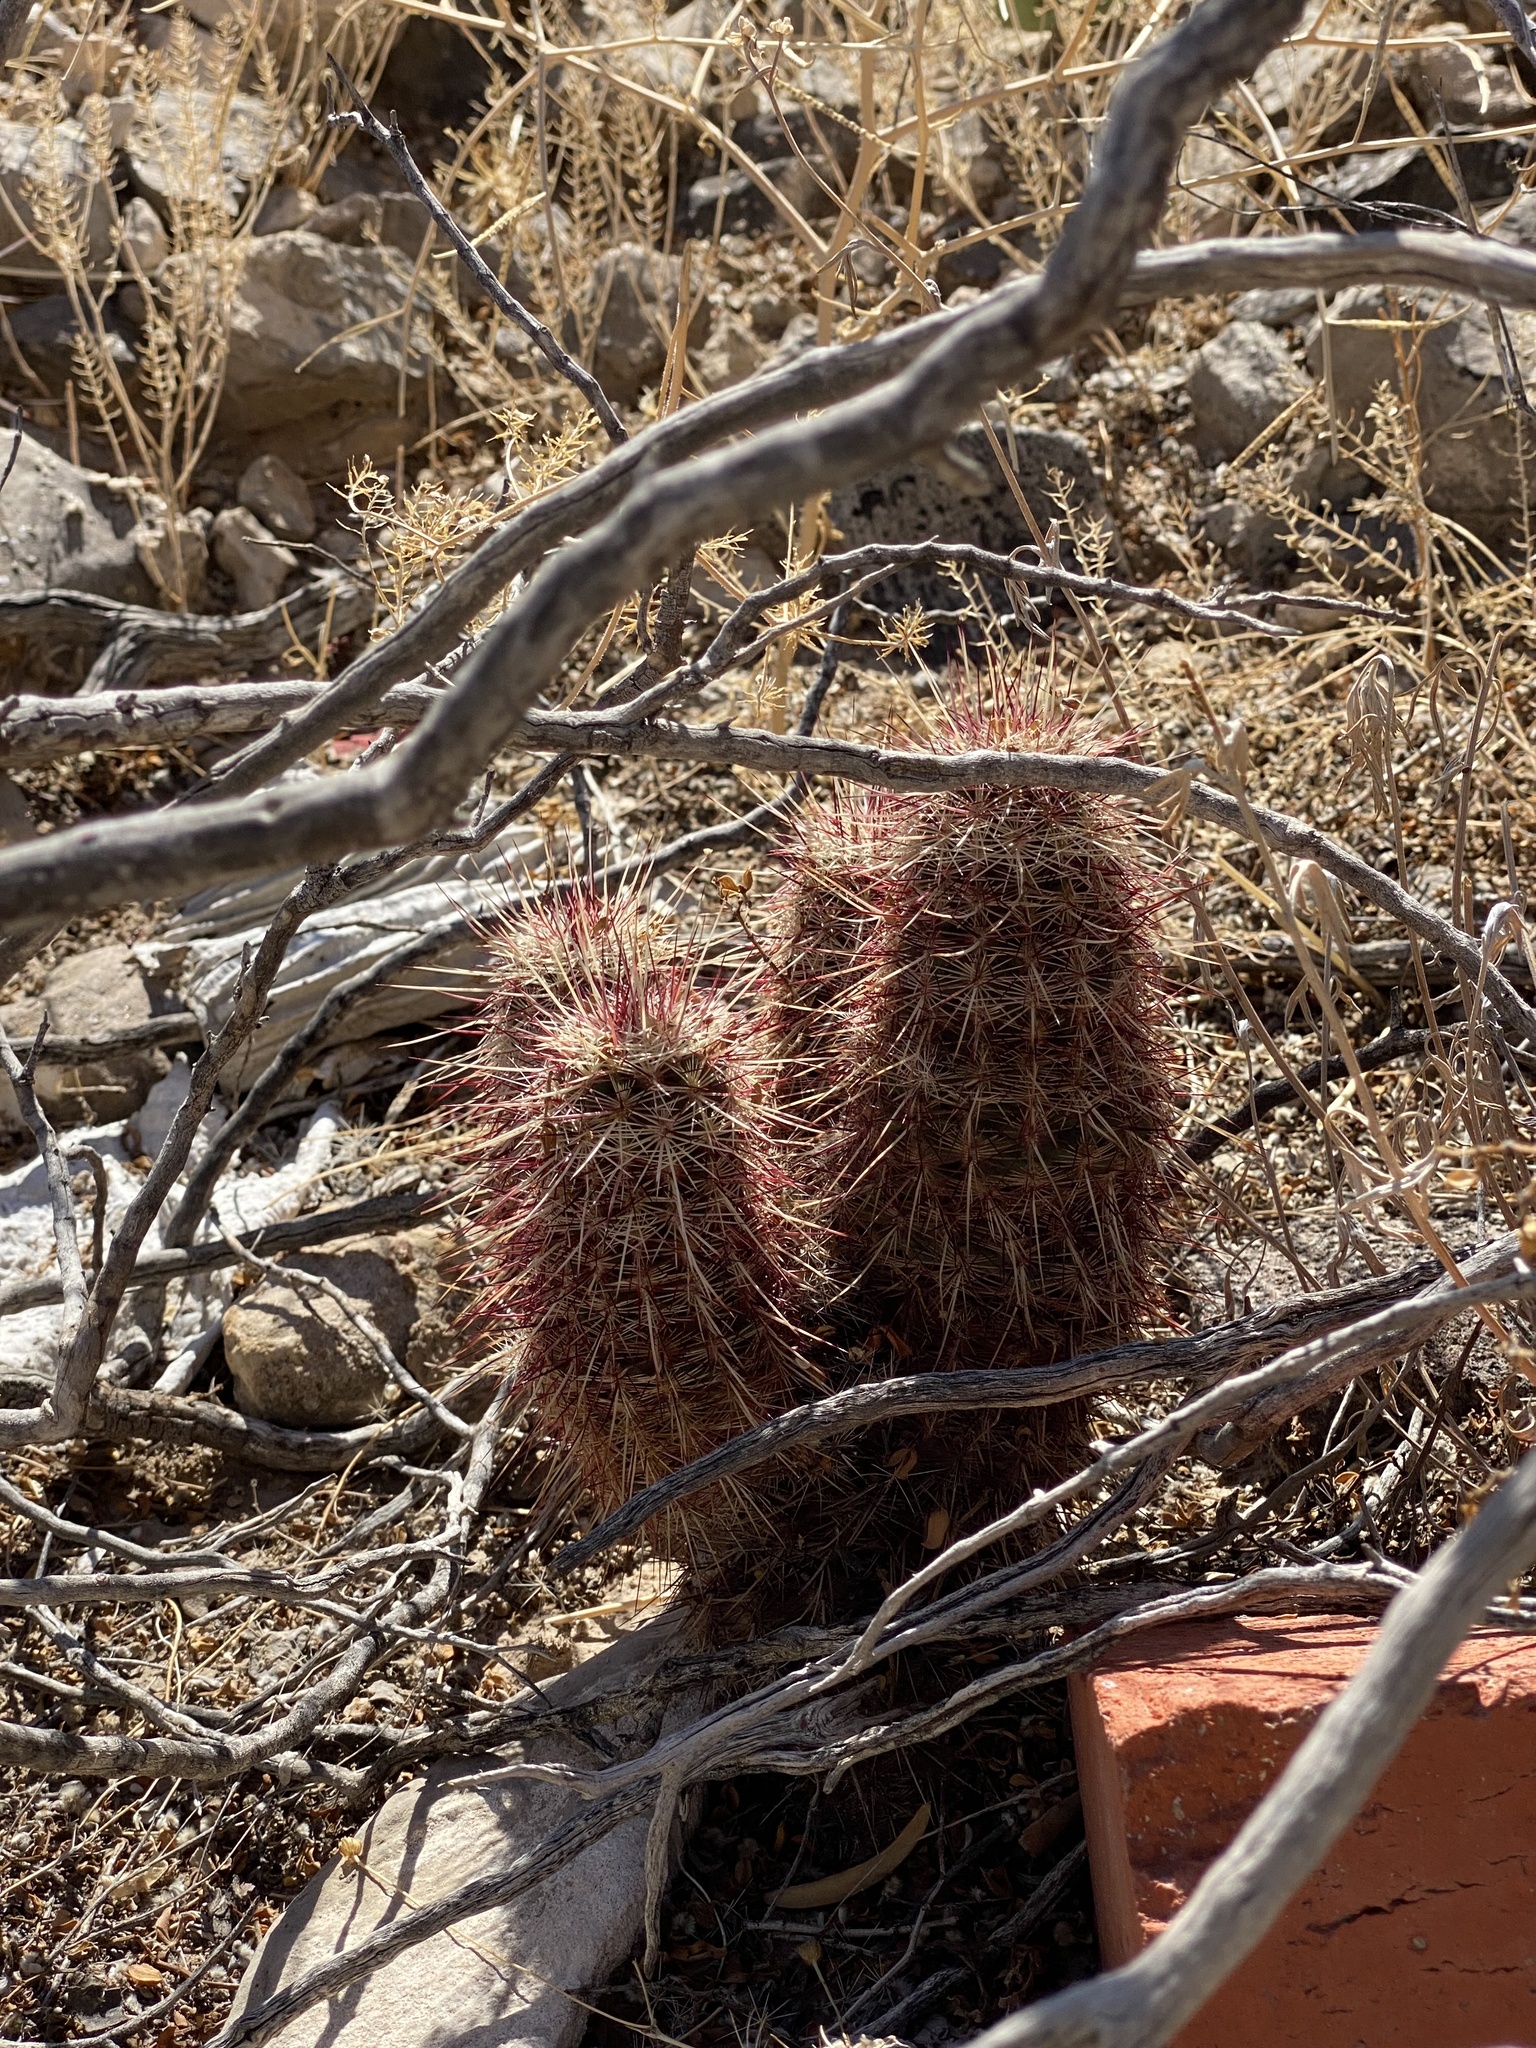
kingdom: Plantae
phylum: Tracheophyta
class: Magnoliopsida
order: Caryophyllales
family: Cactaceae
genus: Echinocereus
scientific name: Echinocereus viridiflorus
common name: Nylon hedgehog cactus
